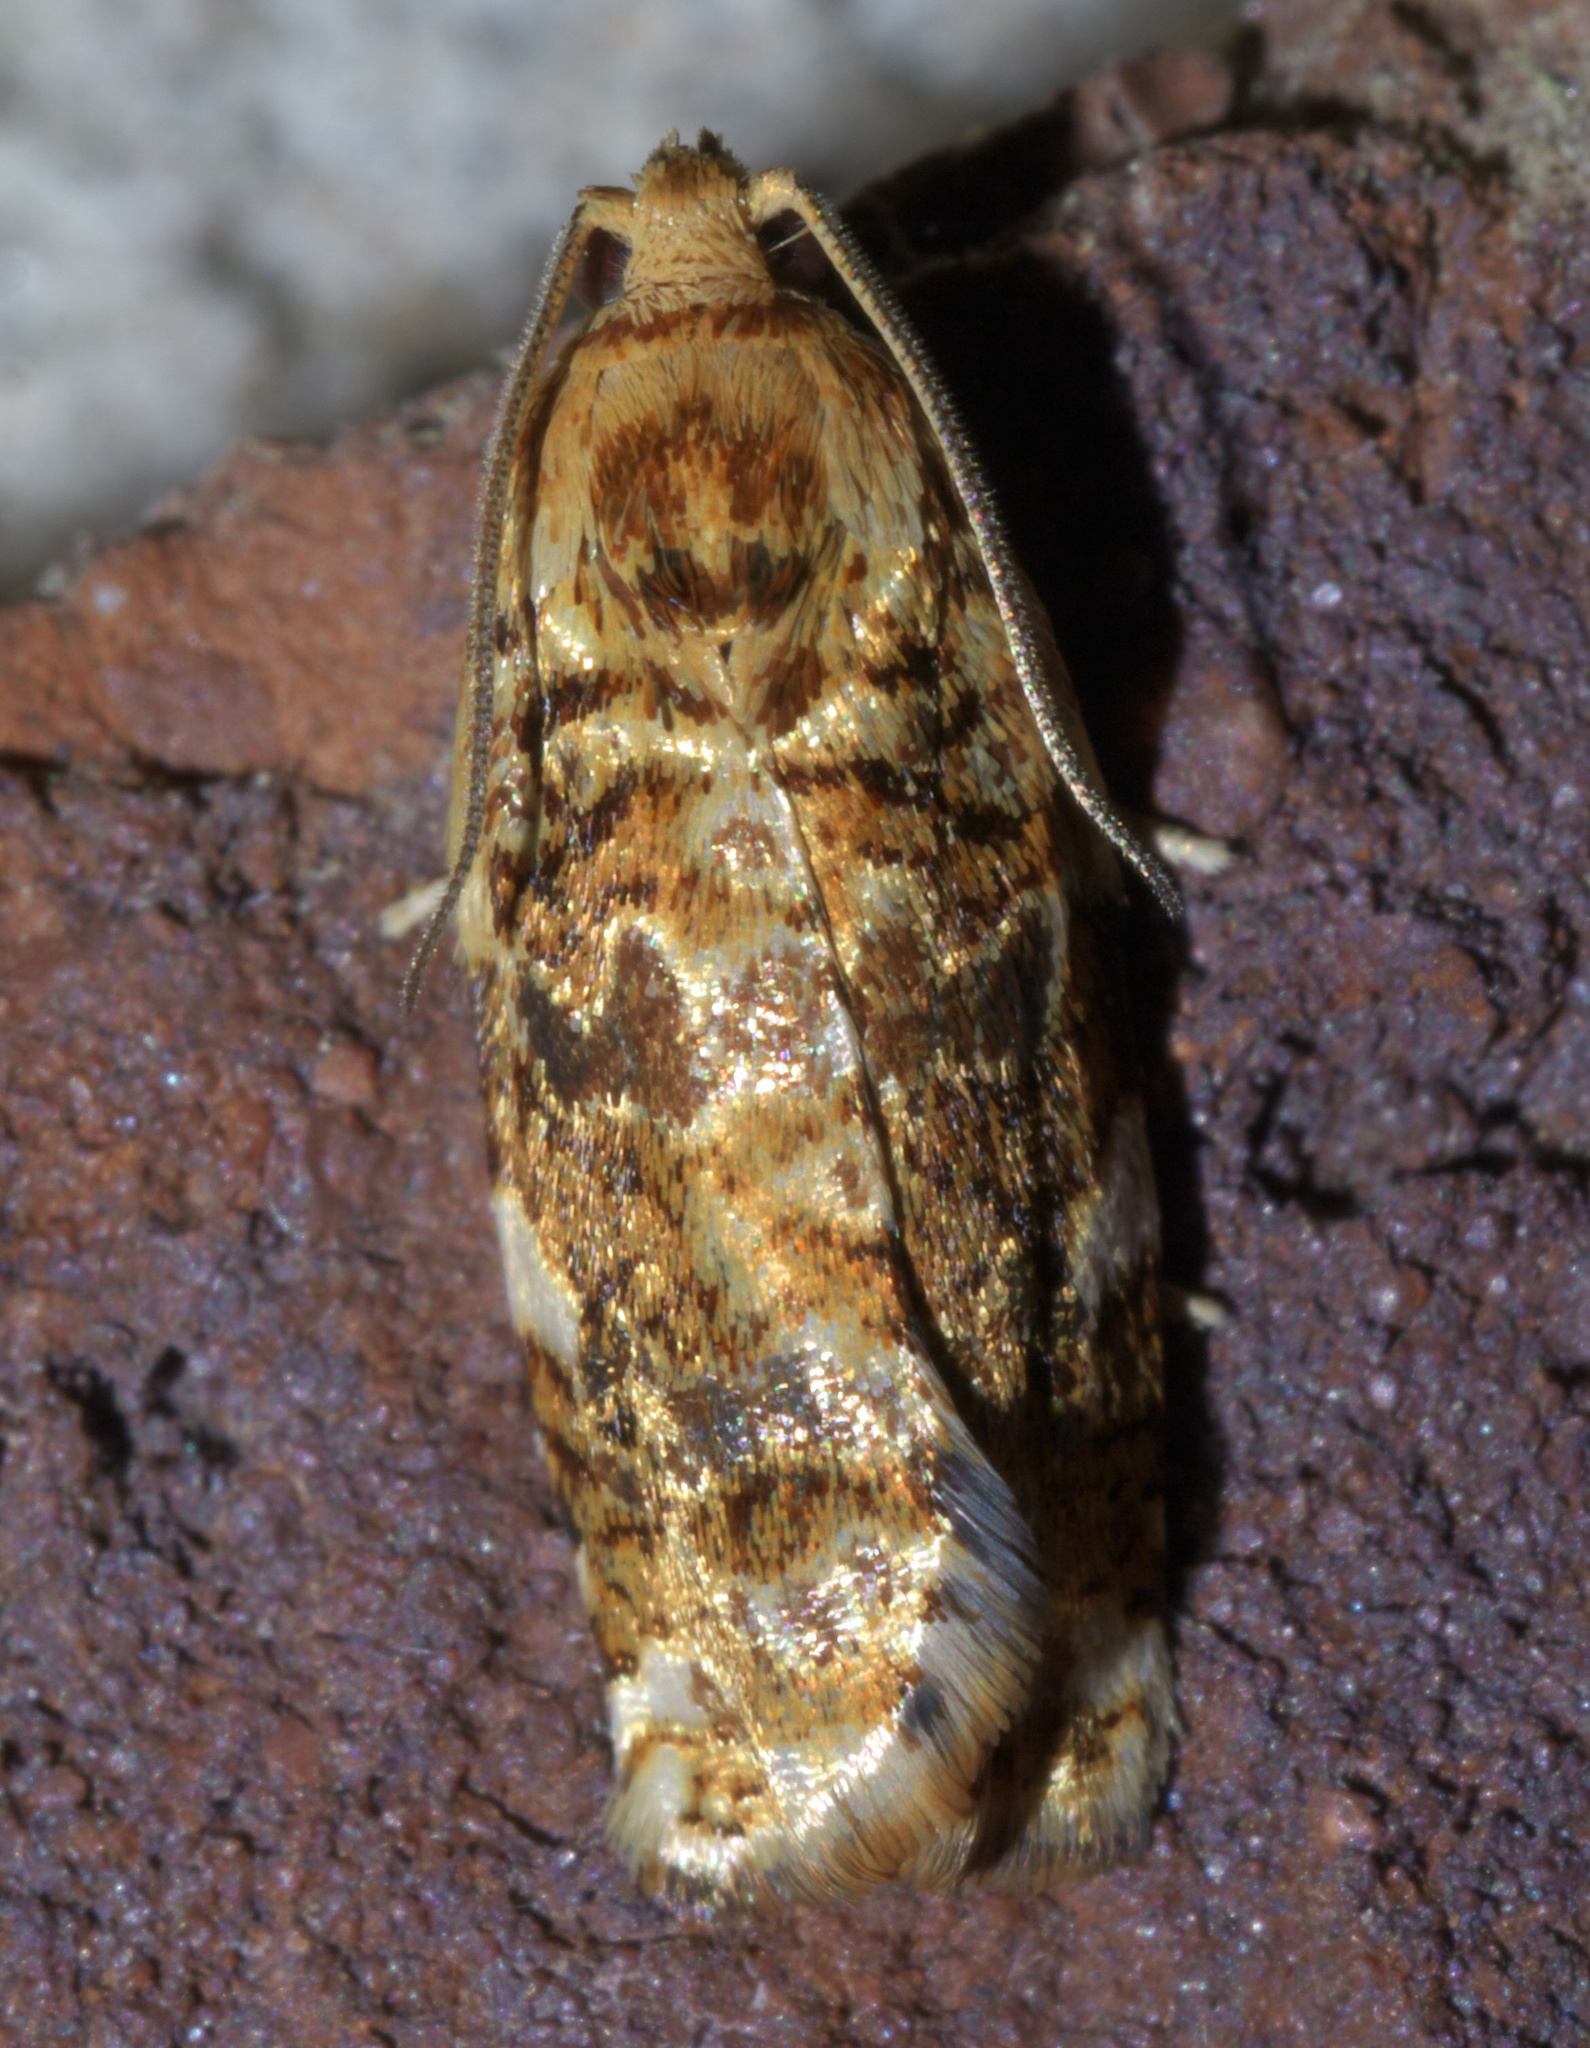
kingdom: Animalia
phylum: Arthropoda
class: Insecta
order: Lepidoptera
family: Tortricidae
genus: Archips
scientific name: Archips argyrospila
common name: Fruit-tree leafroller moth
